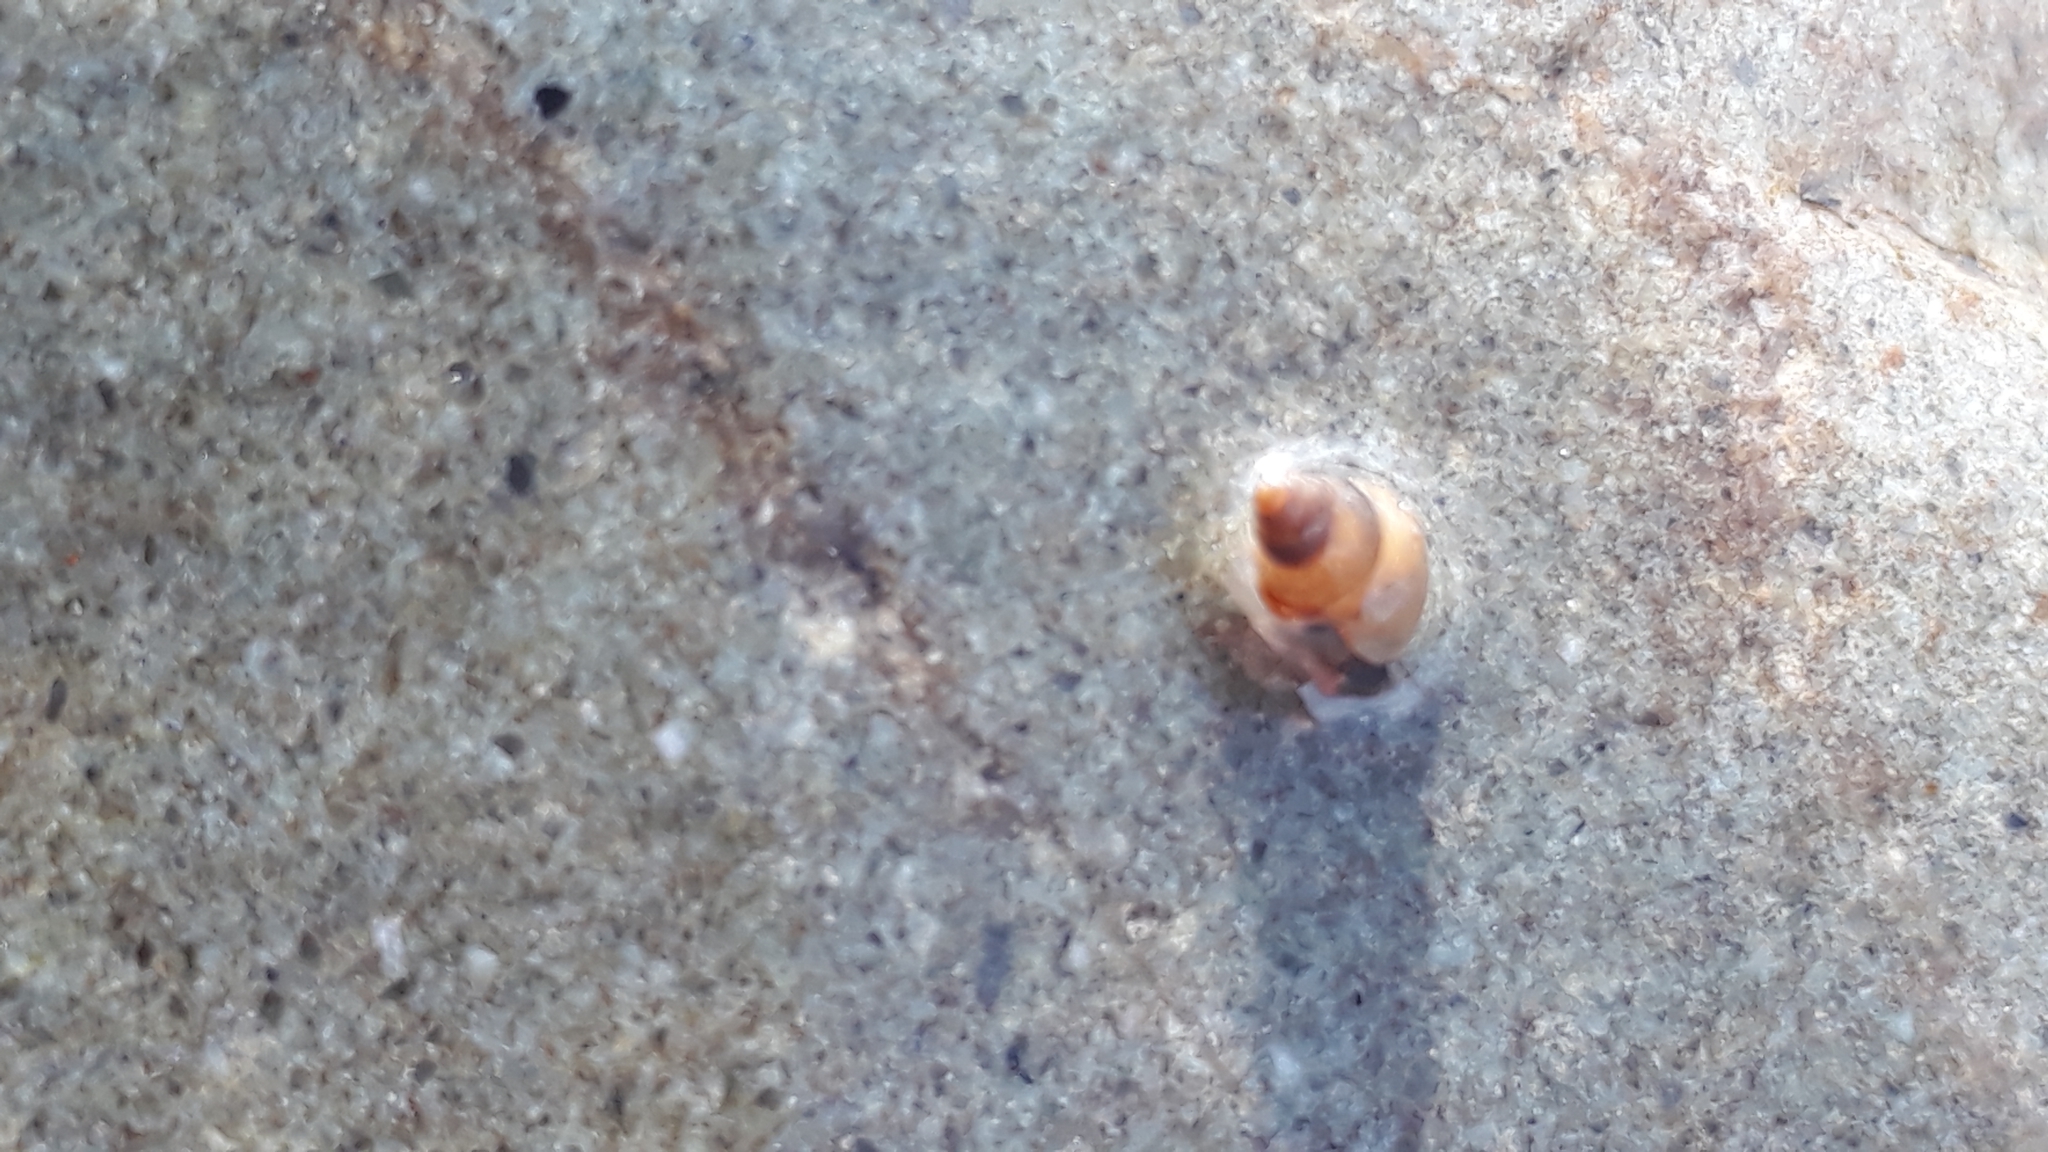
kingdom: Animalia
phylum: Mollusca
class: Gastropoda
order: Stylommatophora
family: Geomitridae
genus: Cochlicella
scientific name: Cochlicella barbara
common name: Potbellied helicellid
